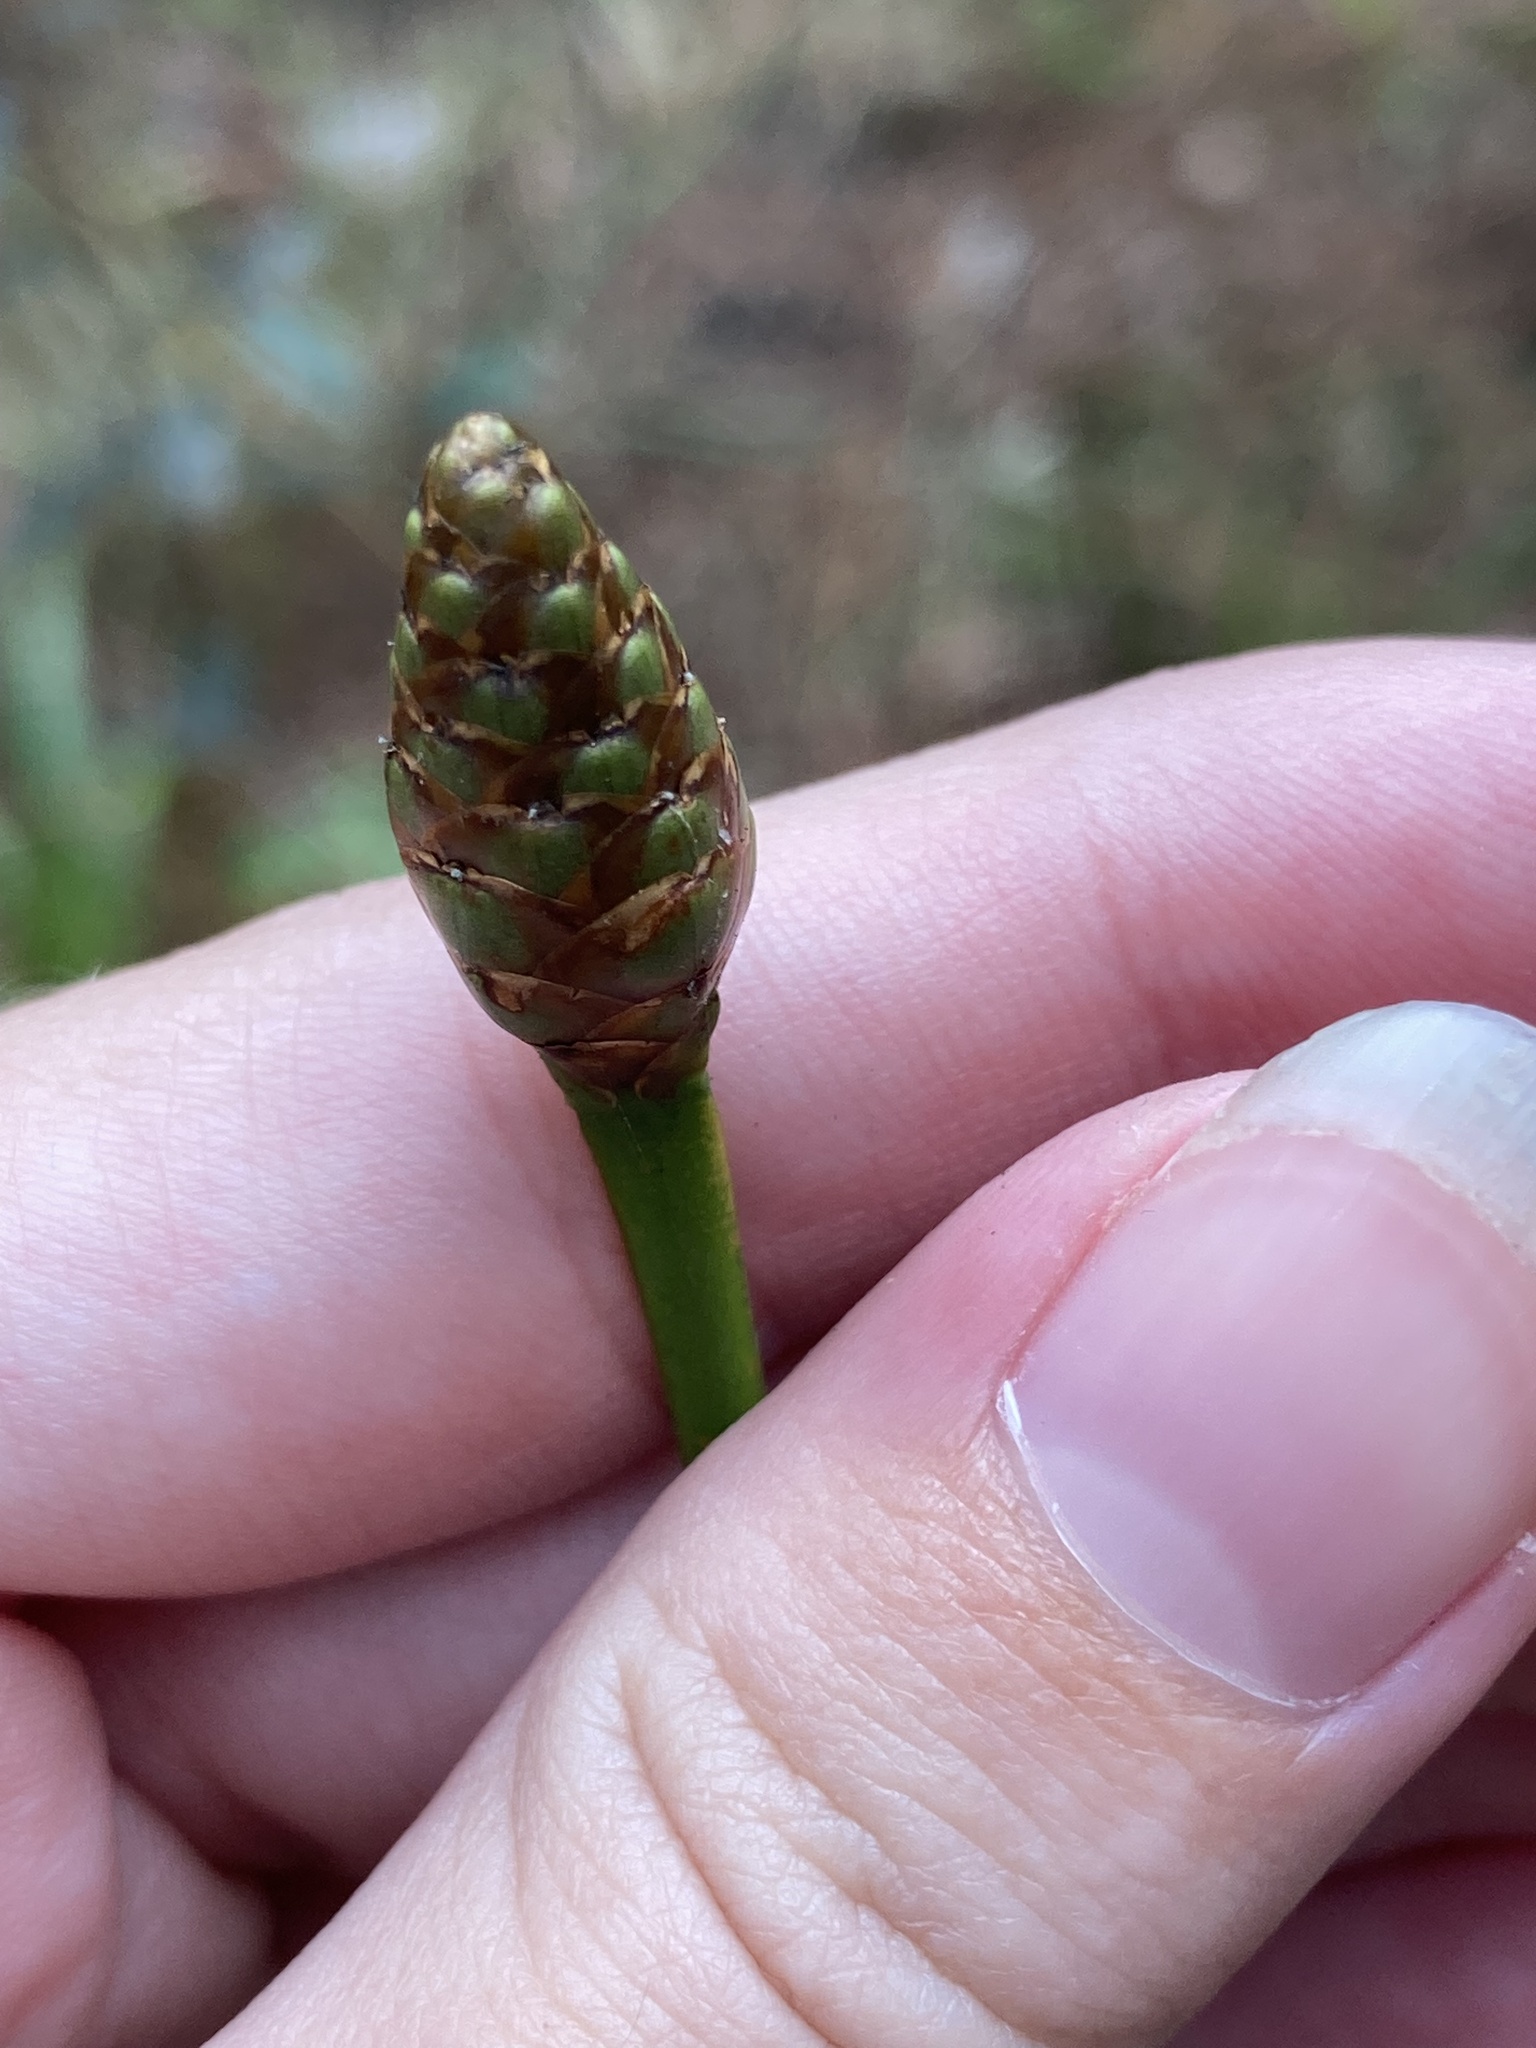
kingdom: Plantae
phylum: Tracheophyta
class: Liliopsida
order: Poales
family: Xyridaceae
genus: Xyris
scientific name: Xyris ambigua
